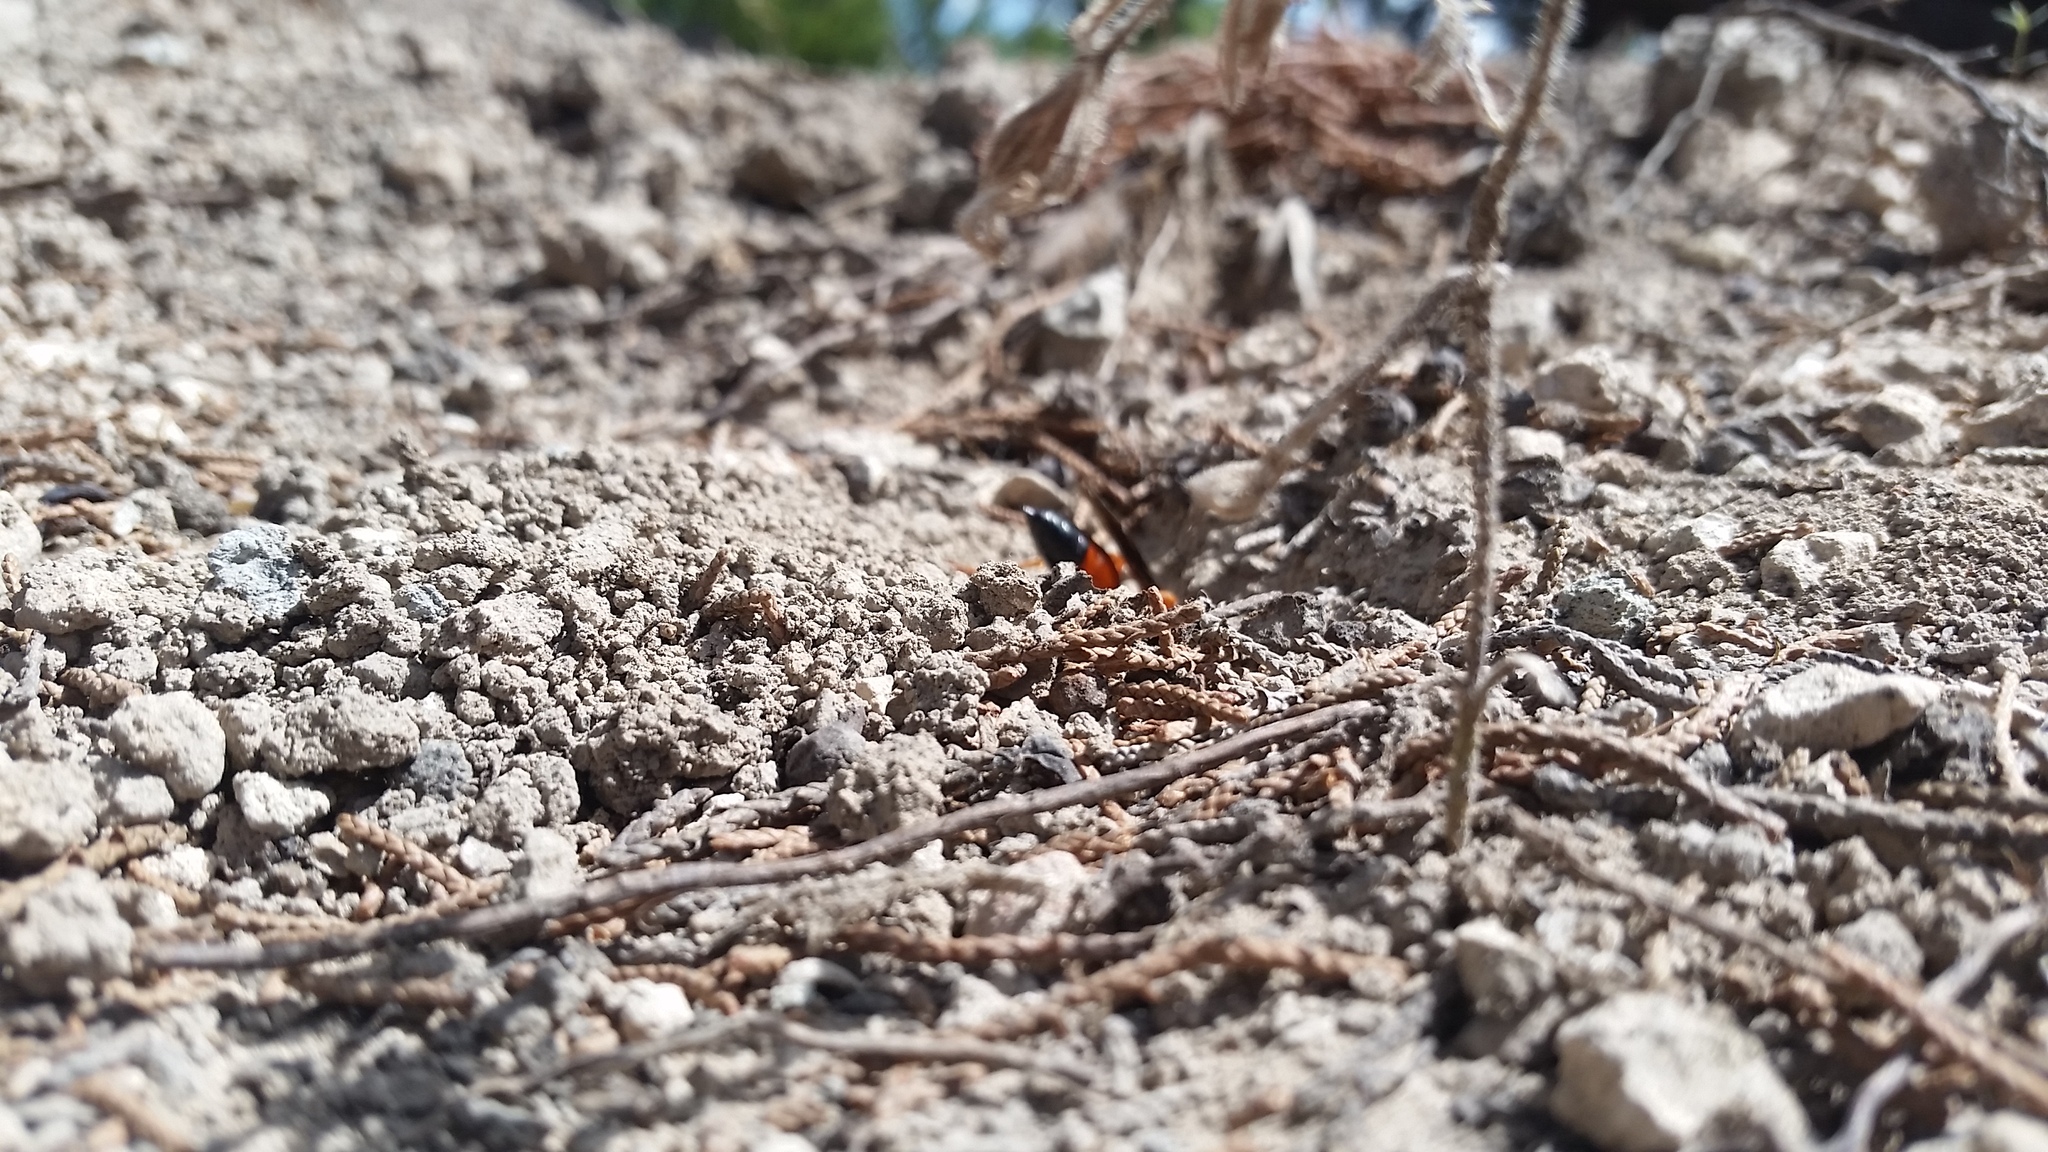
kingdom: Animalia
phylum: Arthropoda
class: Insecta
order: Hymenoptera
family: Sphecidae
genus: Sphex
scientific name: Sphex ichneumoneus
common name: Great golden digger wasp
